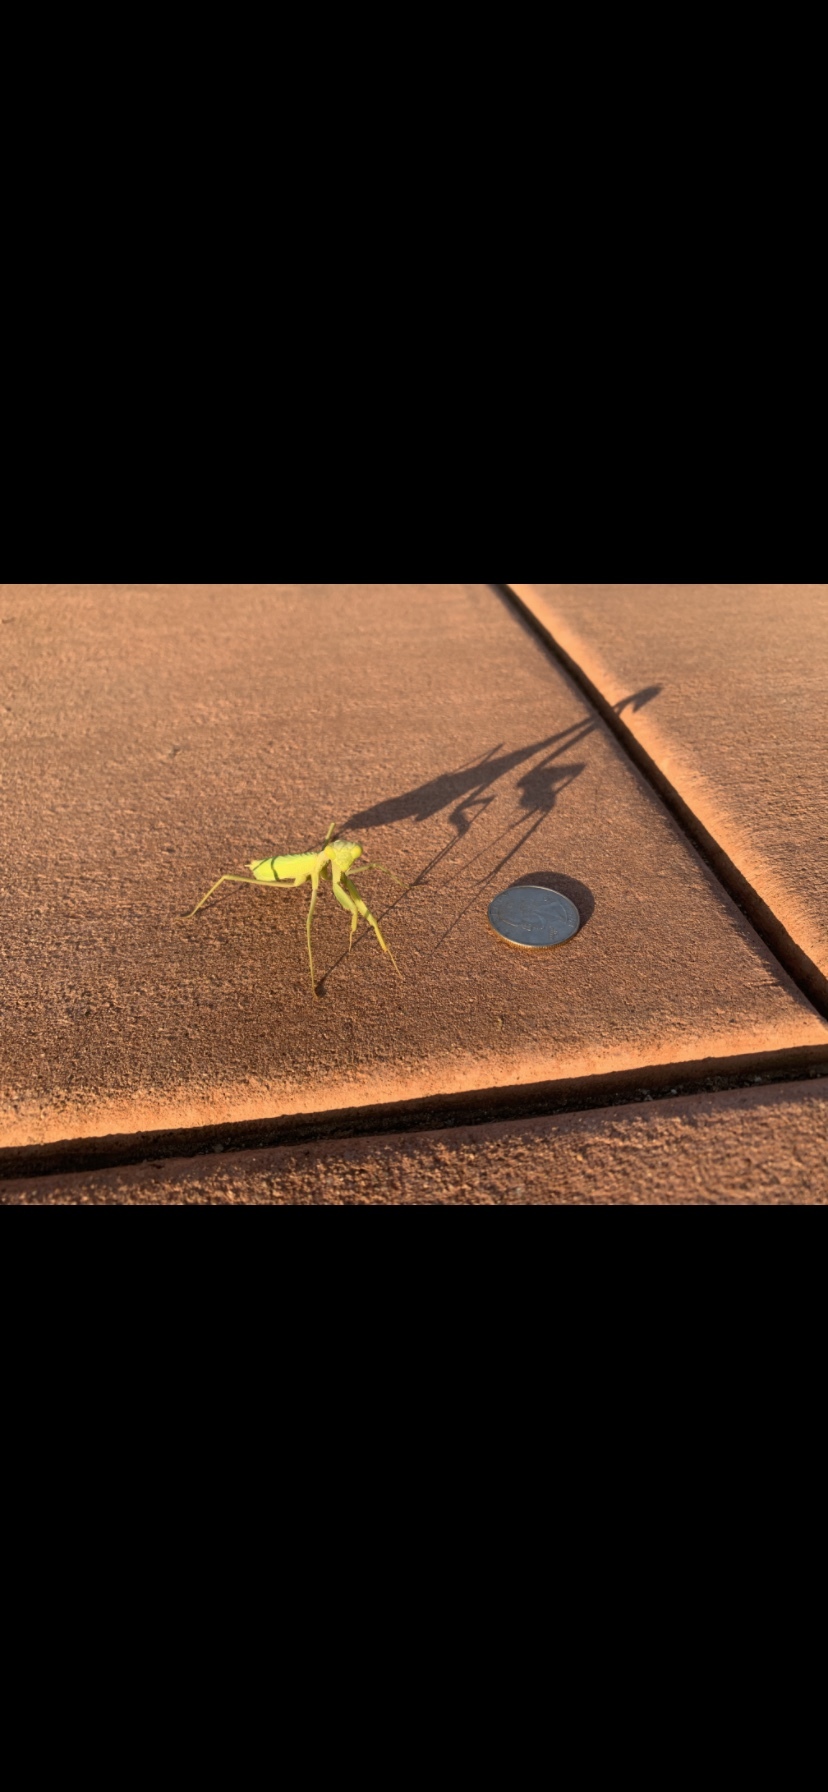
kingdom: Animalia
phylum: Arthropoda
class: Insecta
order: Mantodea
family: Mantidae
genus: Stagmomantis
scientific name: Stagmomantis californica
